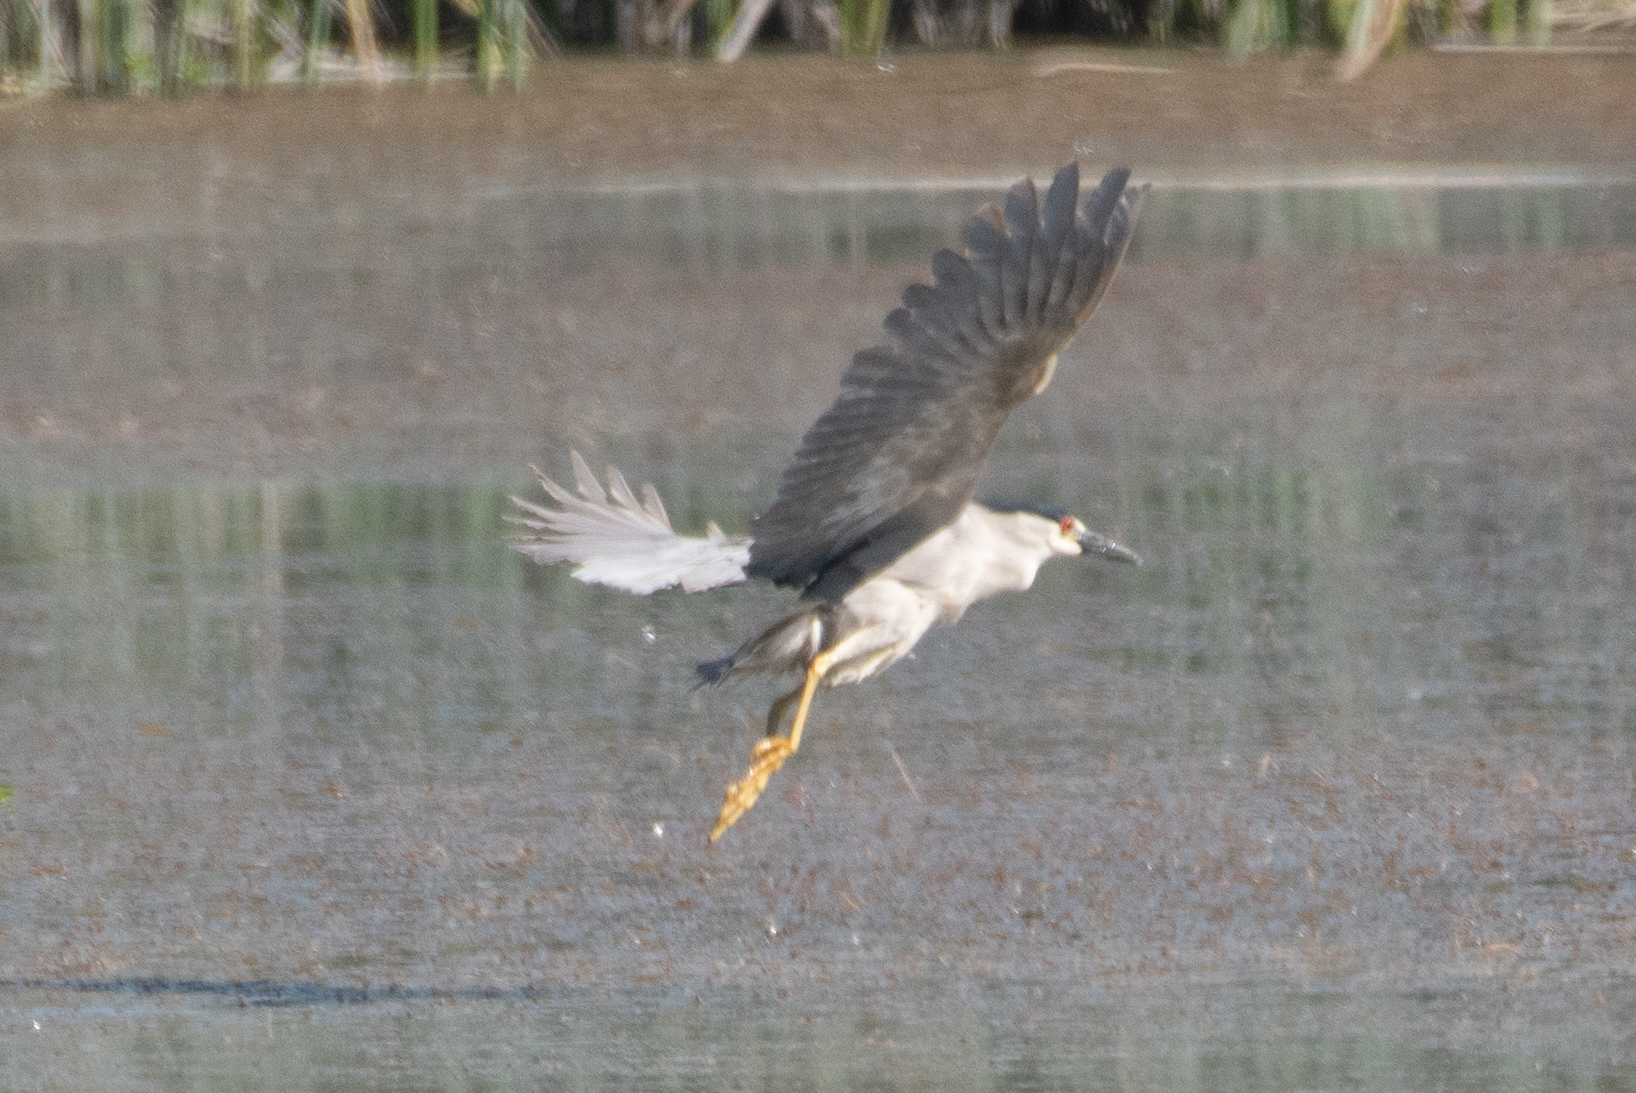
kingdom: Animalia
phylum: Chordata
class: Aves
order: Pelecaniformes
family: Ardeidae
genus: Nycticorax
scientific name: Nycticorax nycticorax
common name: Black-crowned night heron
